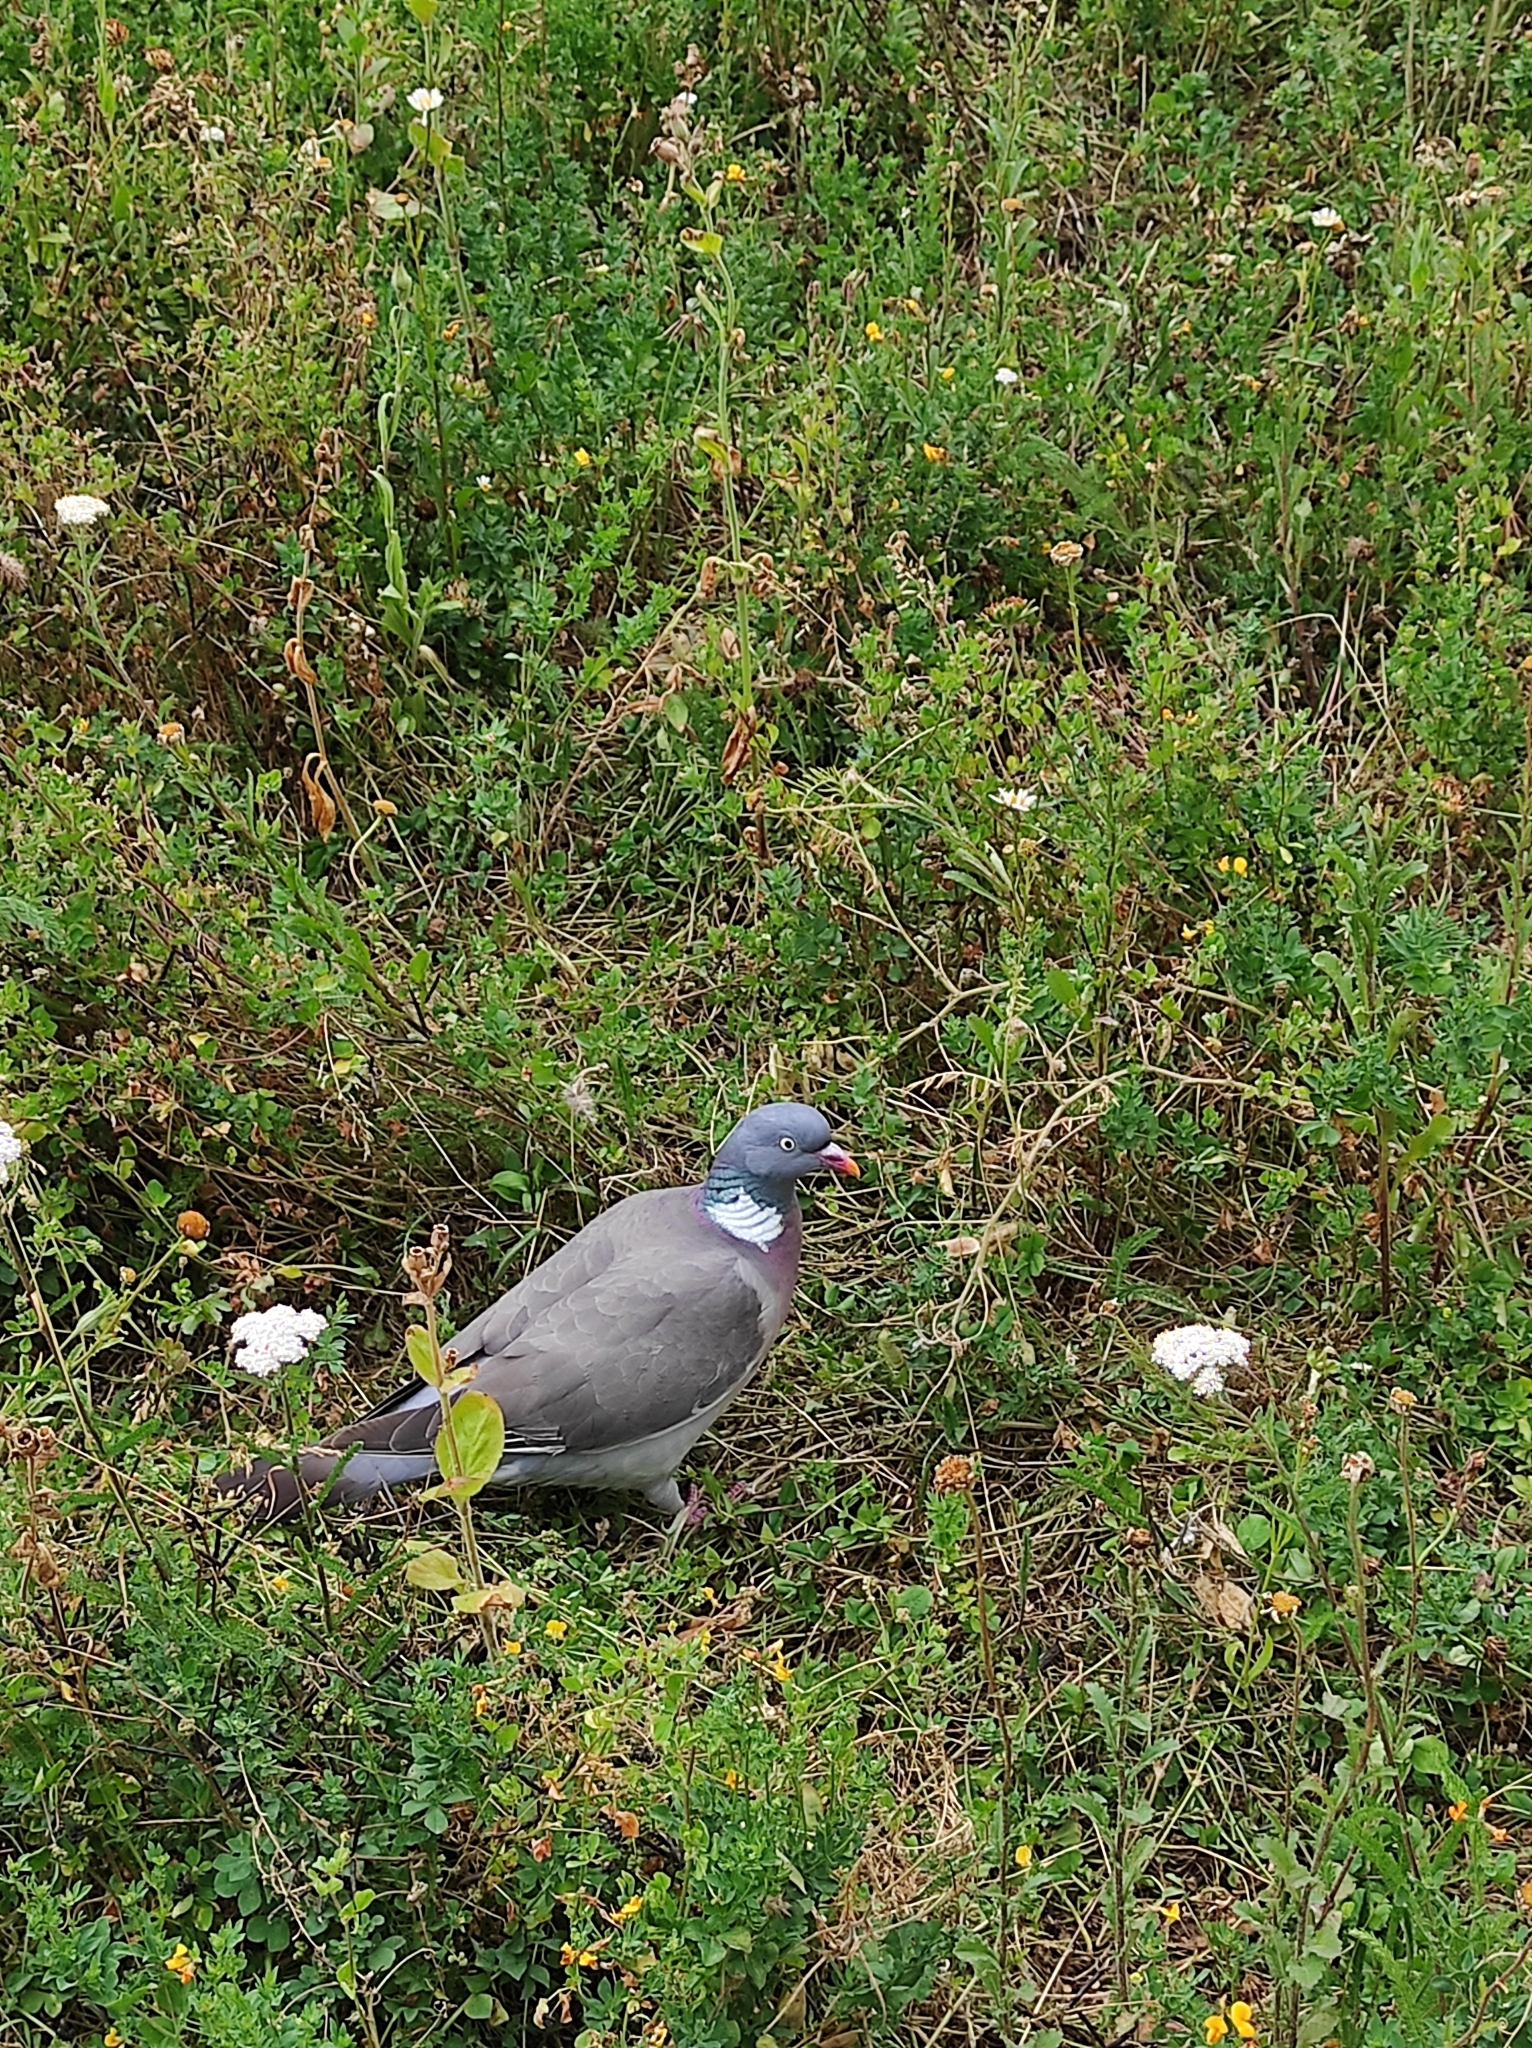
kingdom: Animalia
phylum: Chordata
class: Aves
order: Columbiformes
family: Columbidae
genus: Columba
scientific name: Columba palumbus
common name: Common wood pigeon
